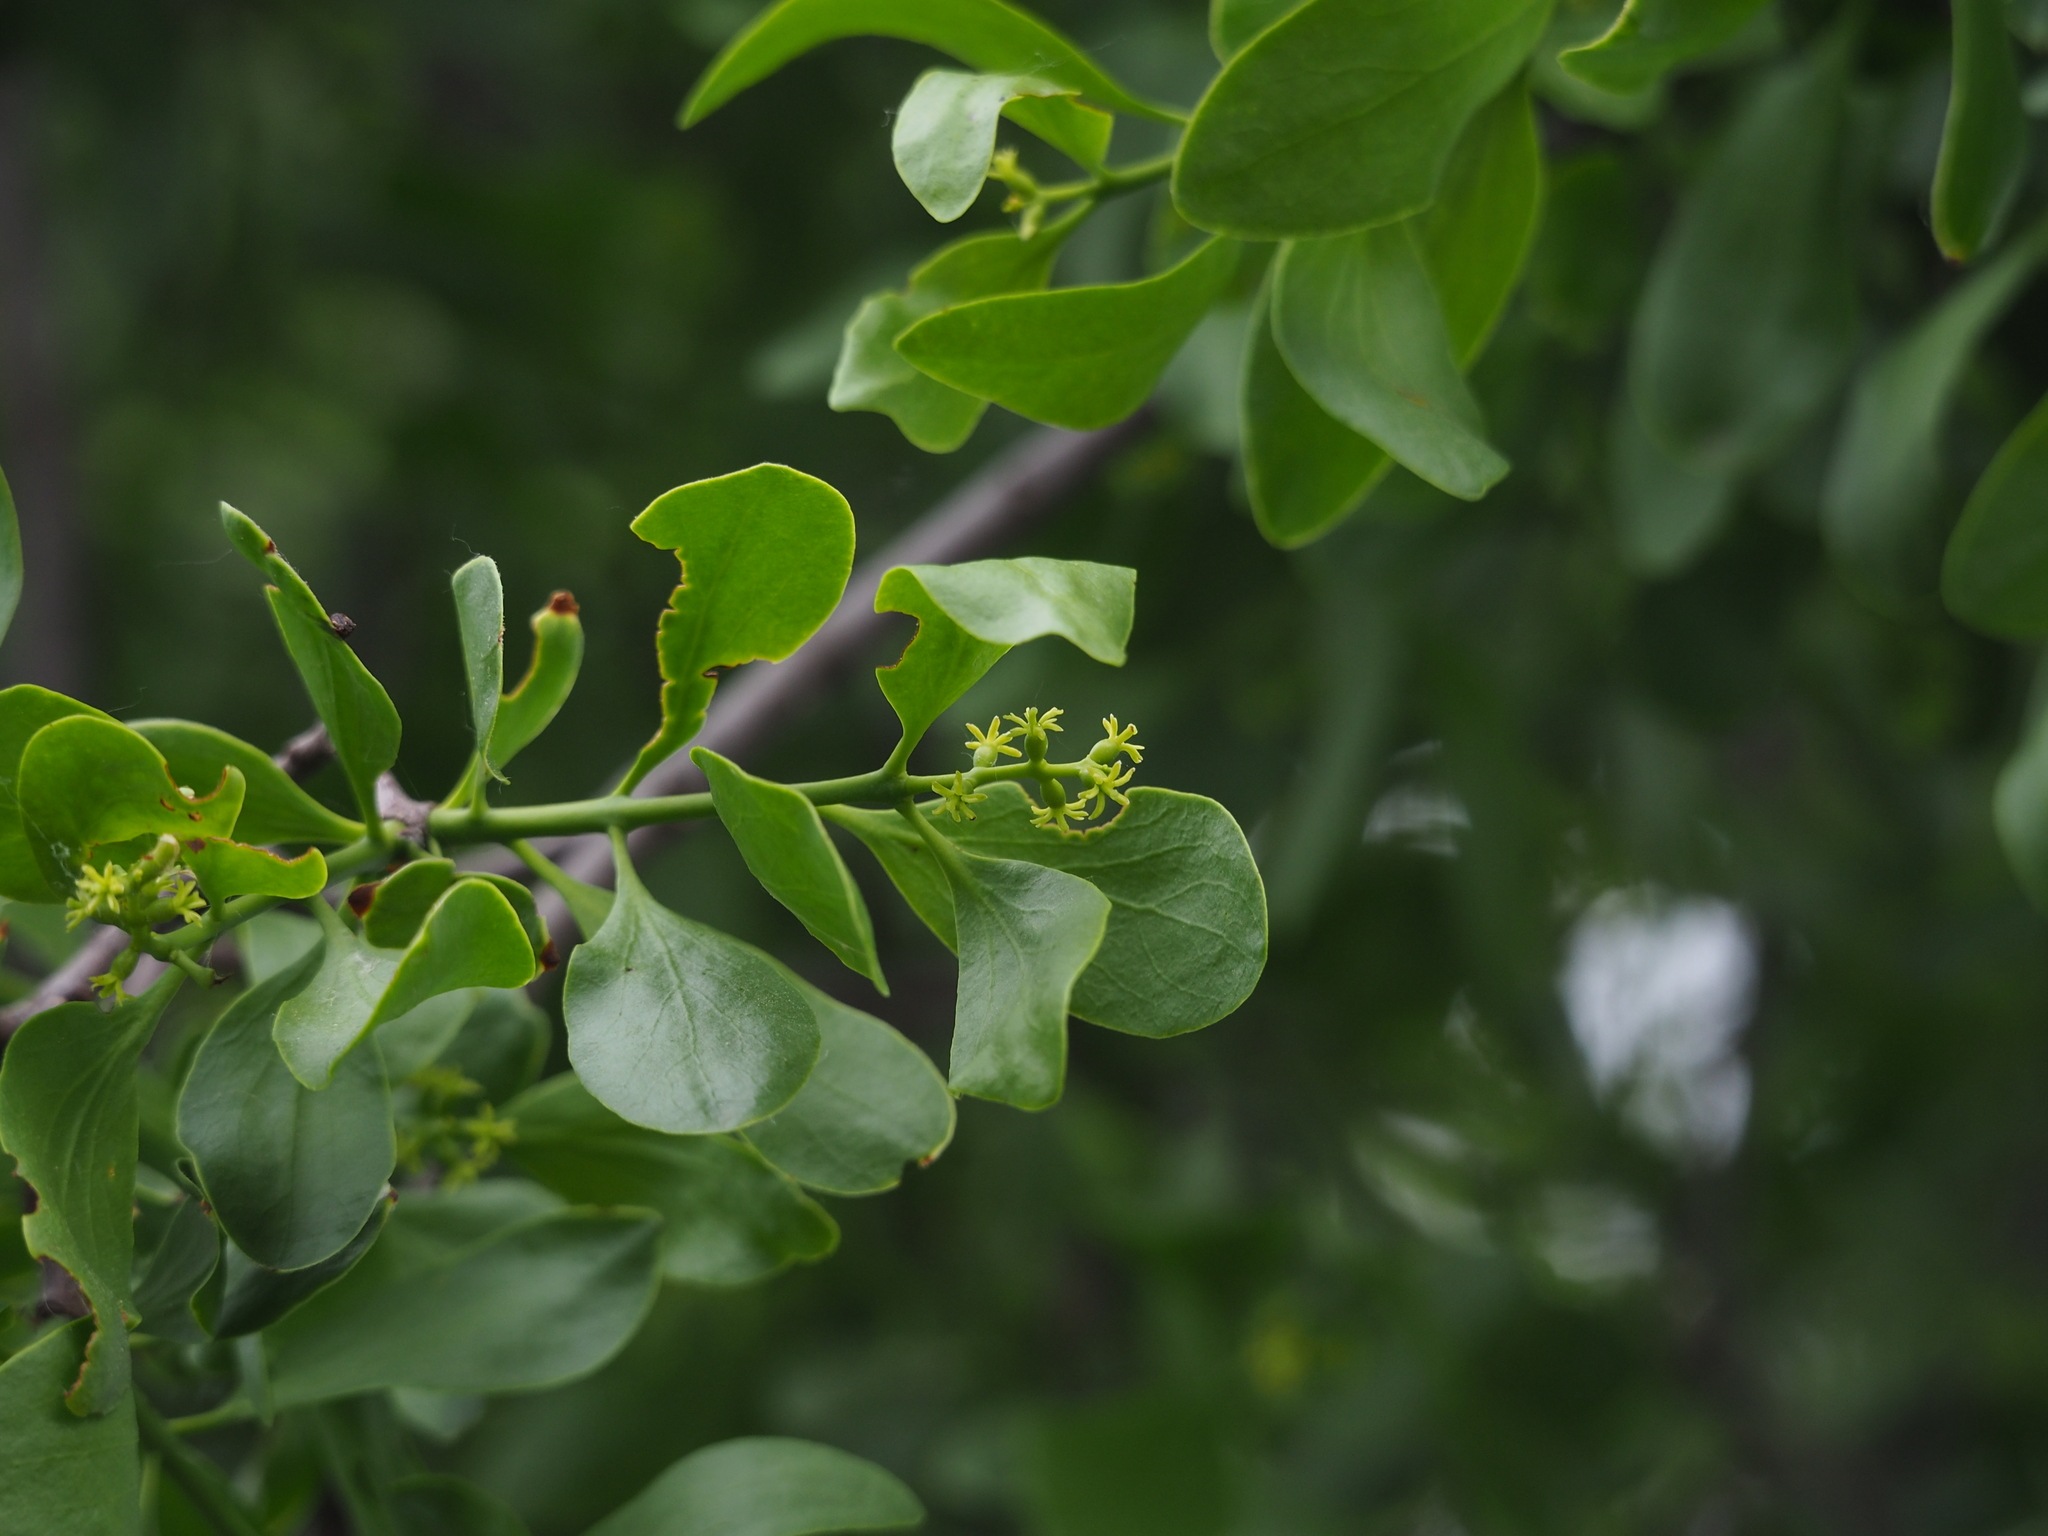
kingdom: Plantae
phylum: Tracheophyta
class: Magnoliopsida
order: Santalales
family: Loranthaceae
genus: Loranthus
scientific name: Loranthus europaeus
